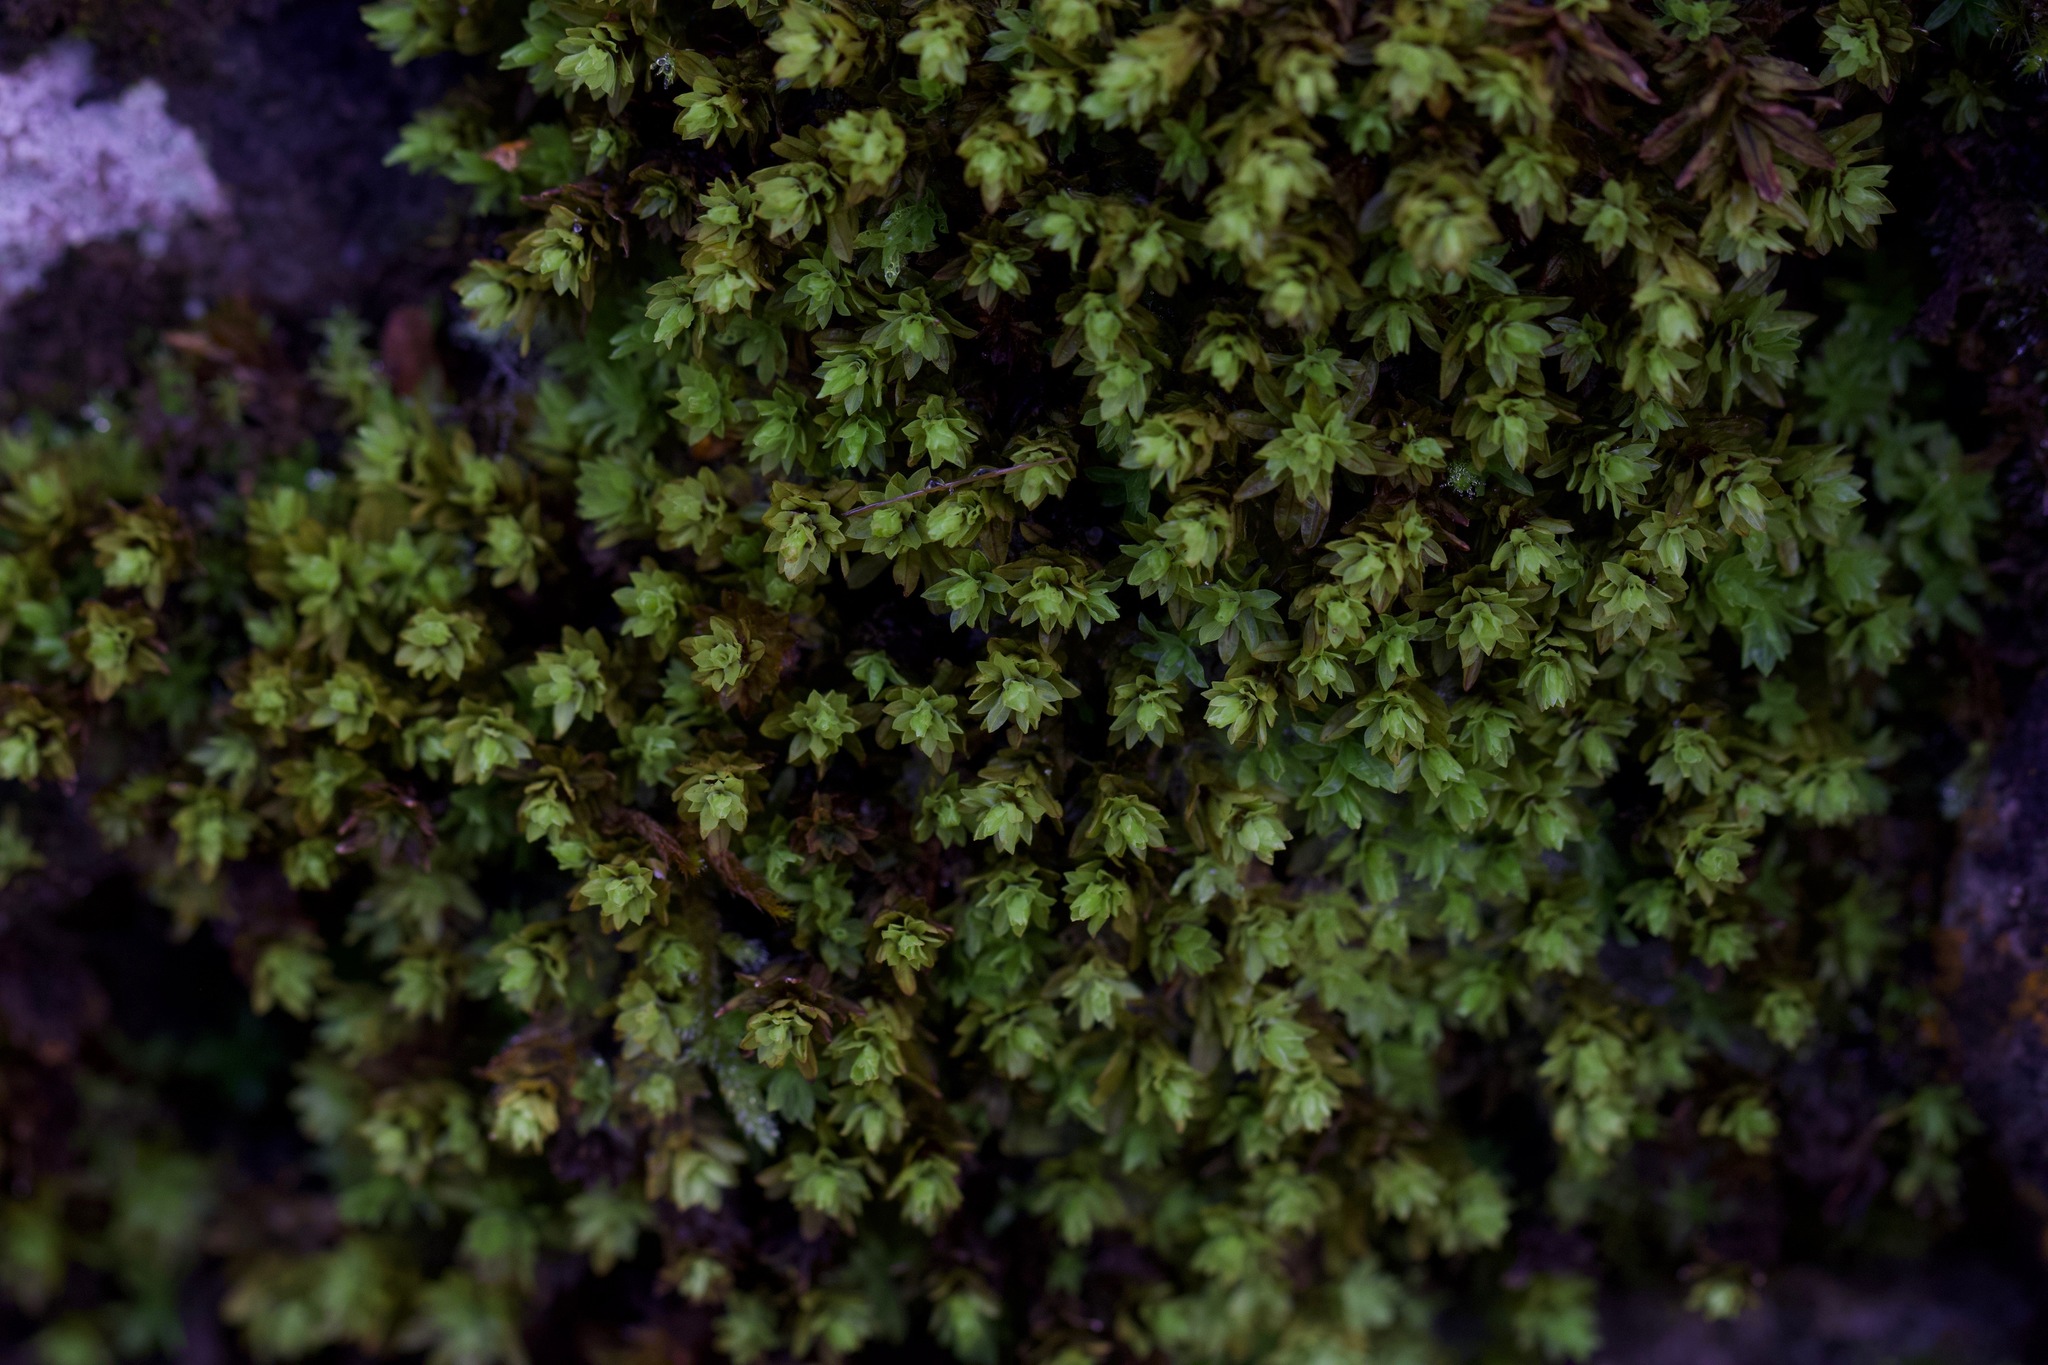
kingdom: Plantae
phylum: Bryophyta
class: Bryopsida
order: Encalyptales
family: Encalyptaceae
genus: Encalypta
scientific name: Encalypta streptocarpa
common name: Spiral extinguisher-moss
